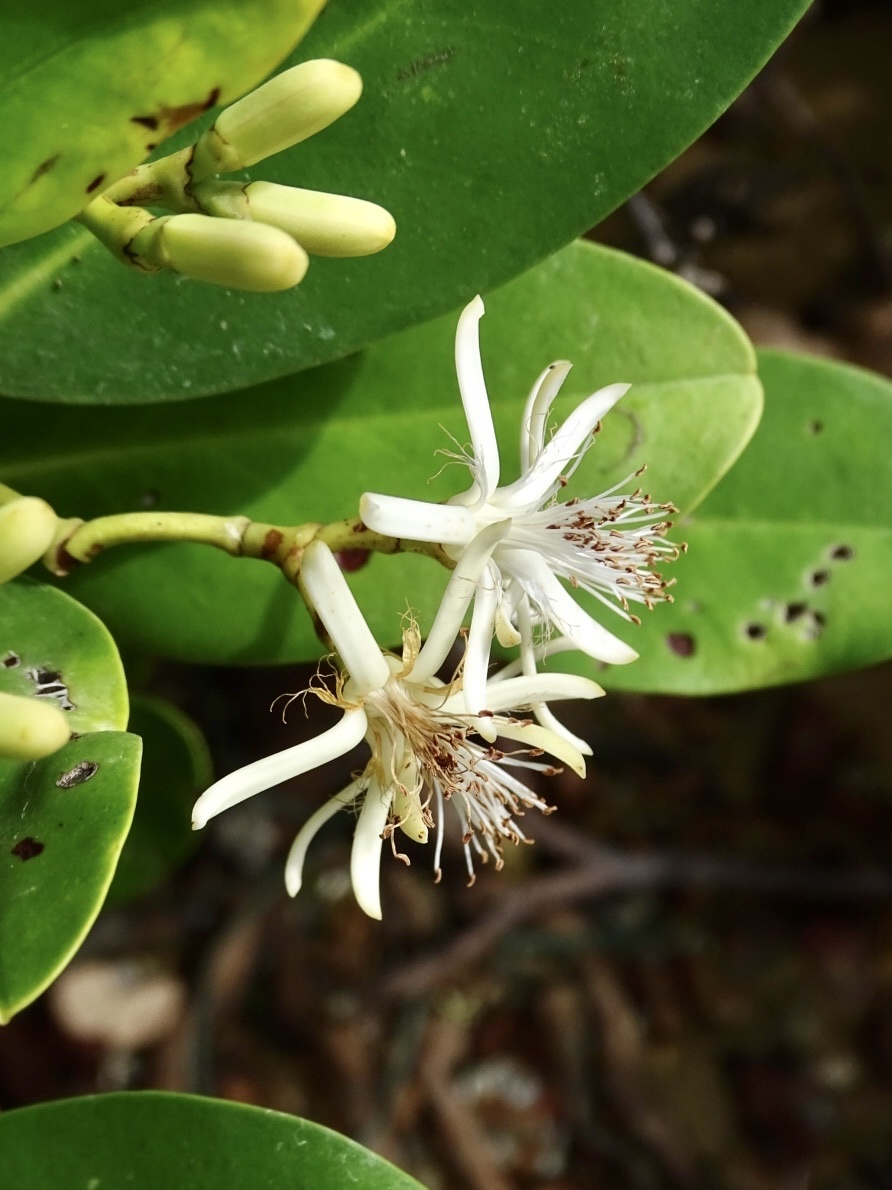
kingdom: Plantae
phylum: Tracheophyta
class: Magnoliopsida
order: Malpighiales
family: Rhizophoraceae
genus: Kandelia
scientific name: Kandelia obovata
